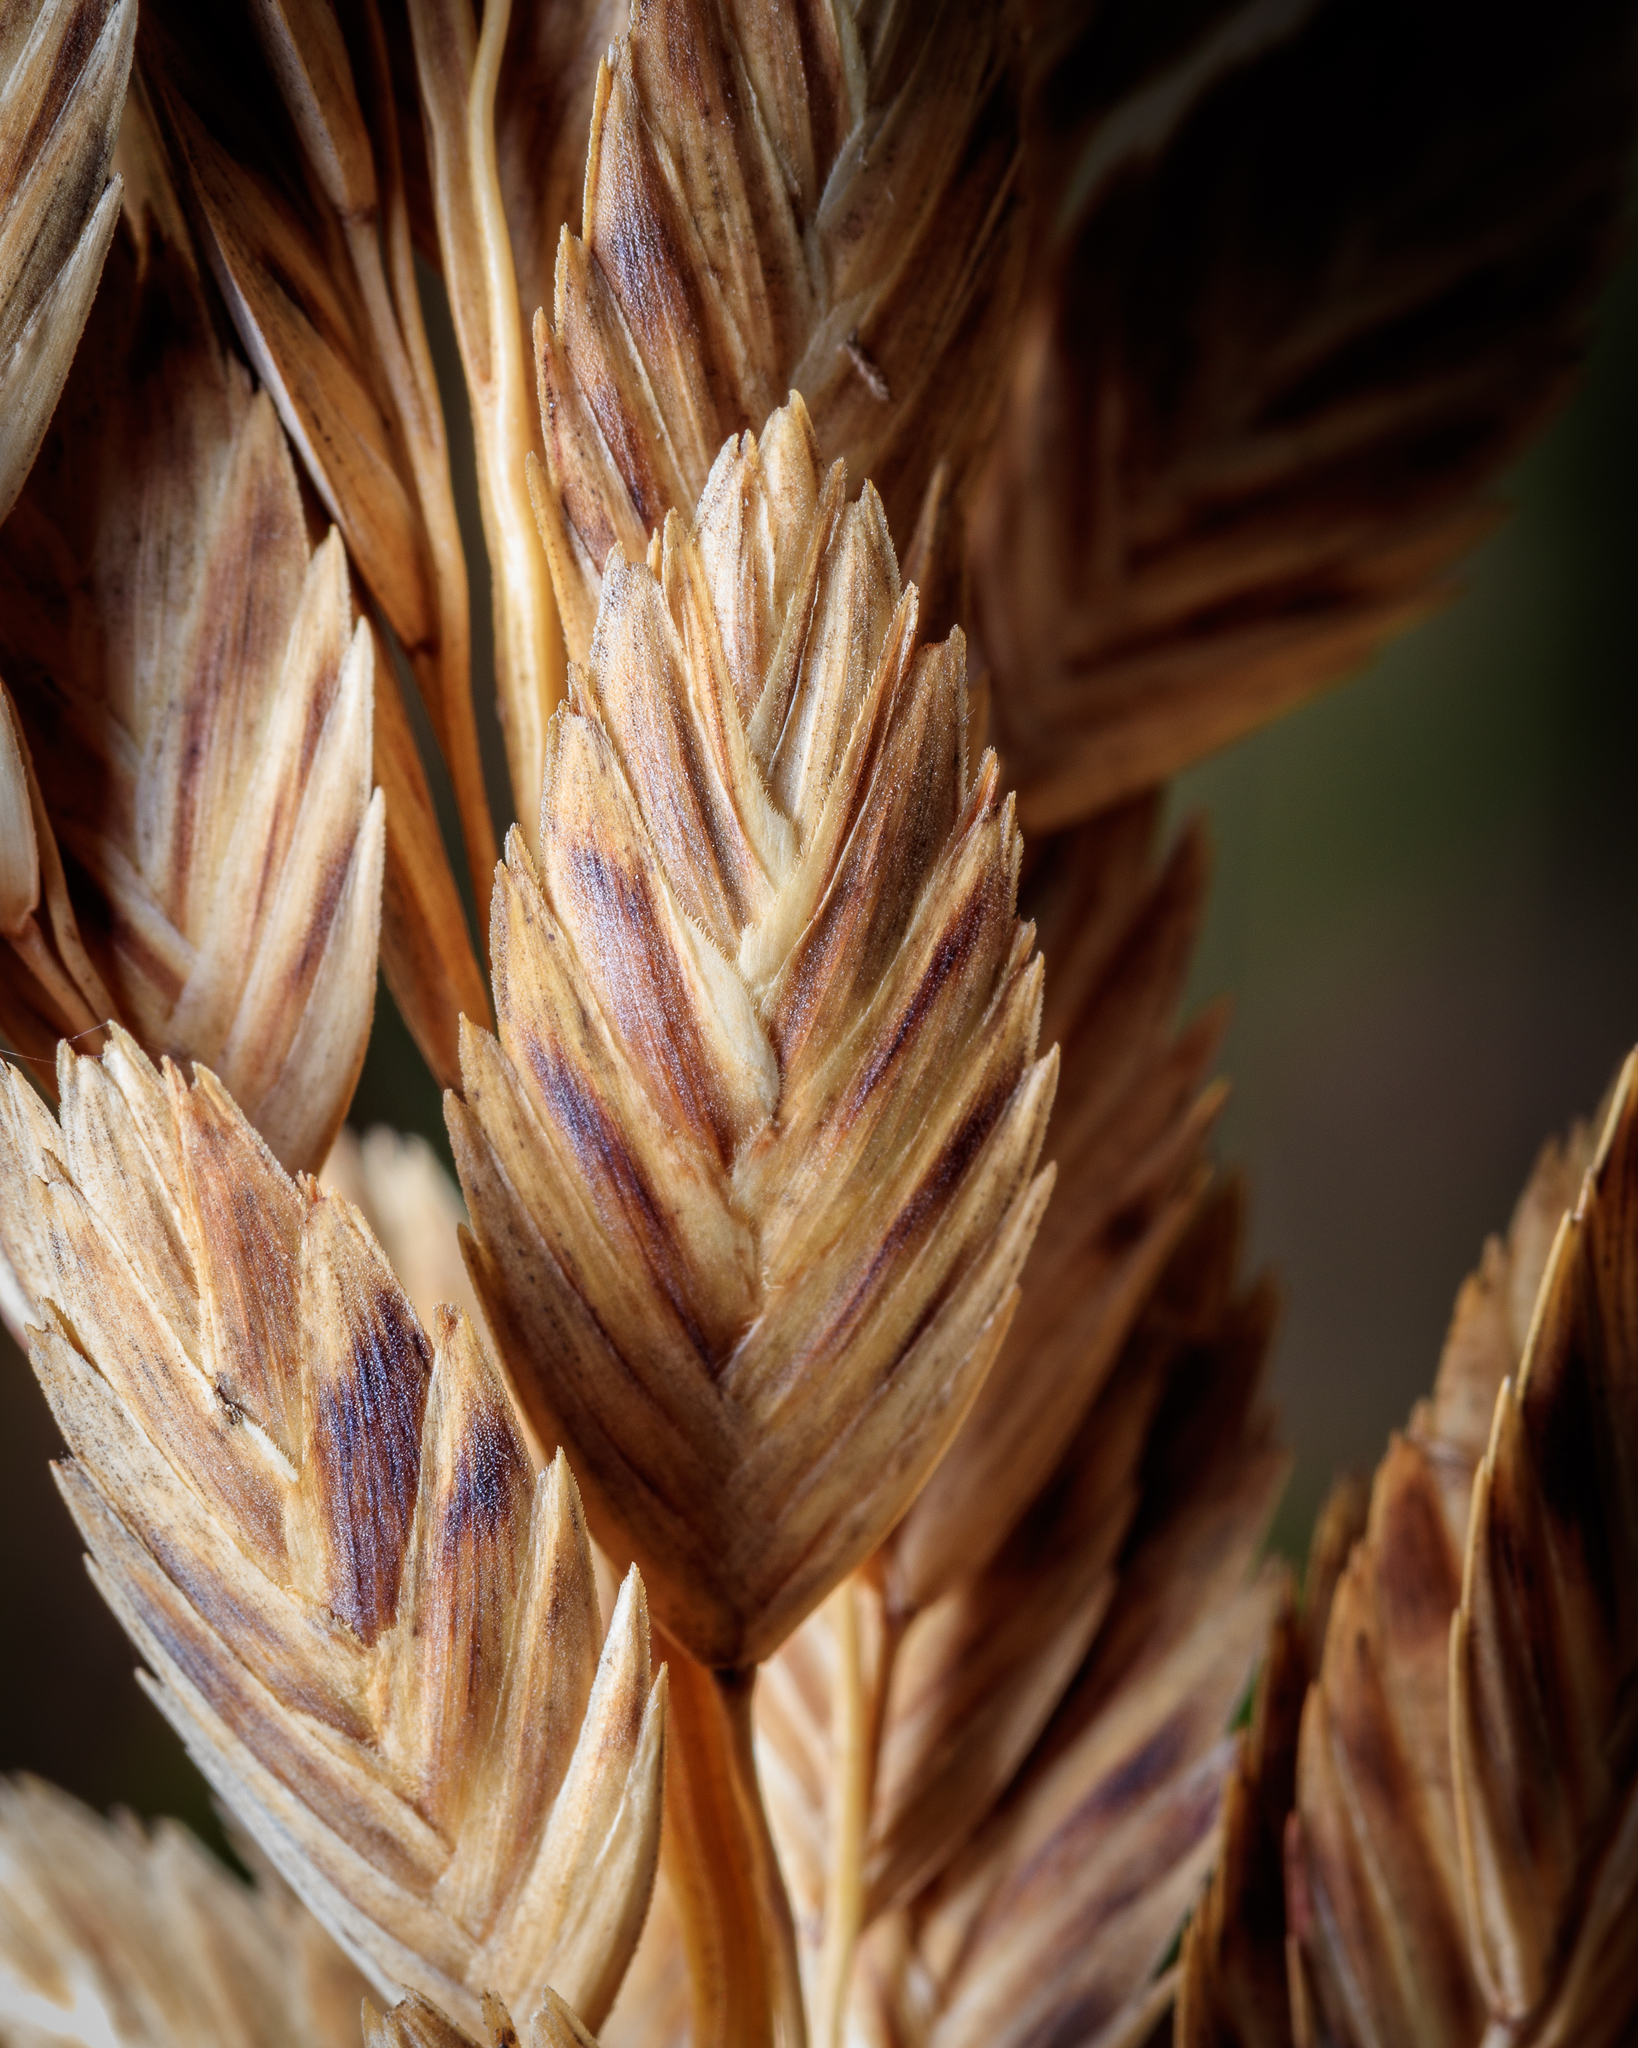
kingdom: Plantae
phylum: Tracheophyta
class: Liliopsida
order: Poales
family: Poaceae
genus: Uniola
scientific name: Uniola paniculata
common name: Seaside-oats
